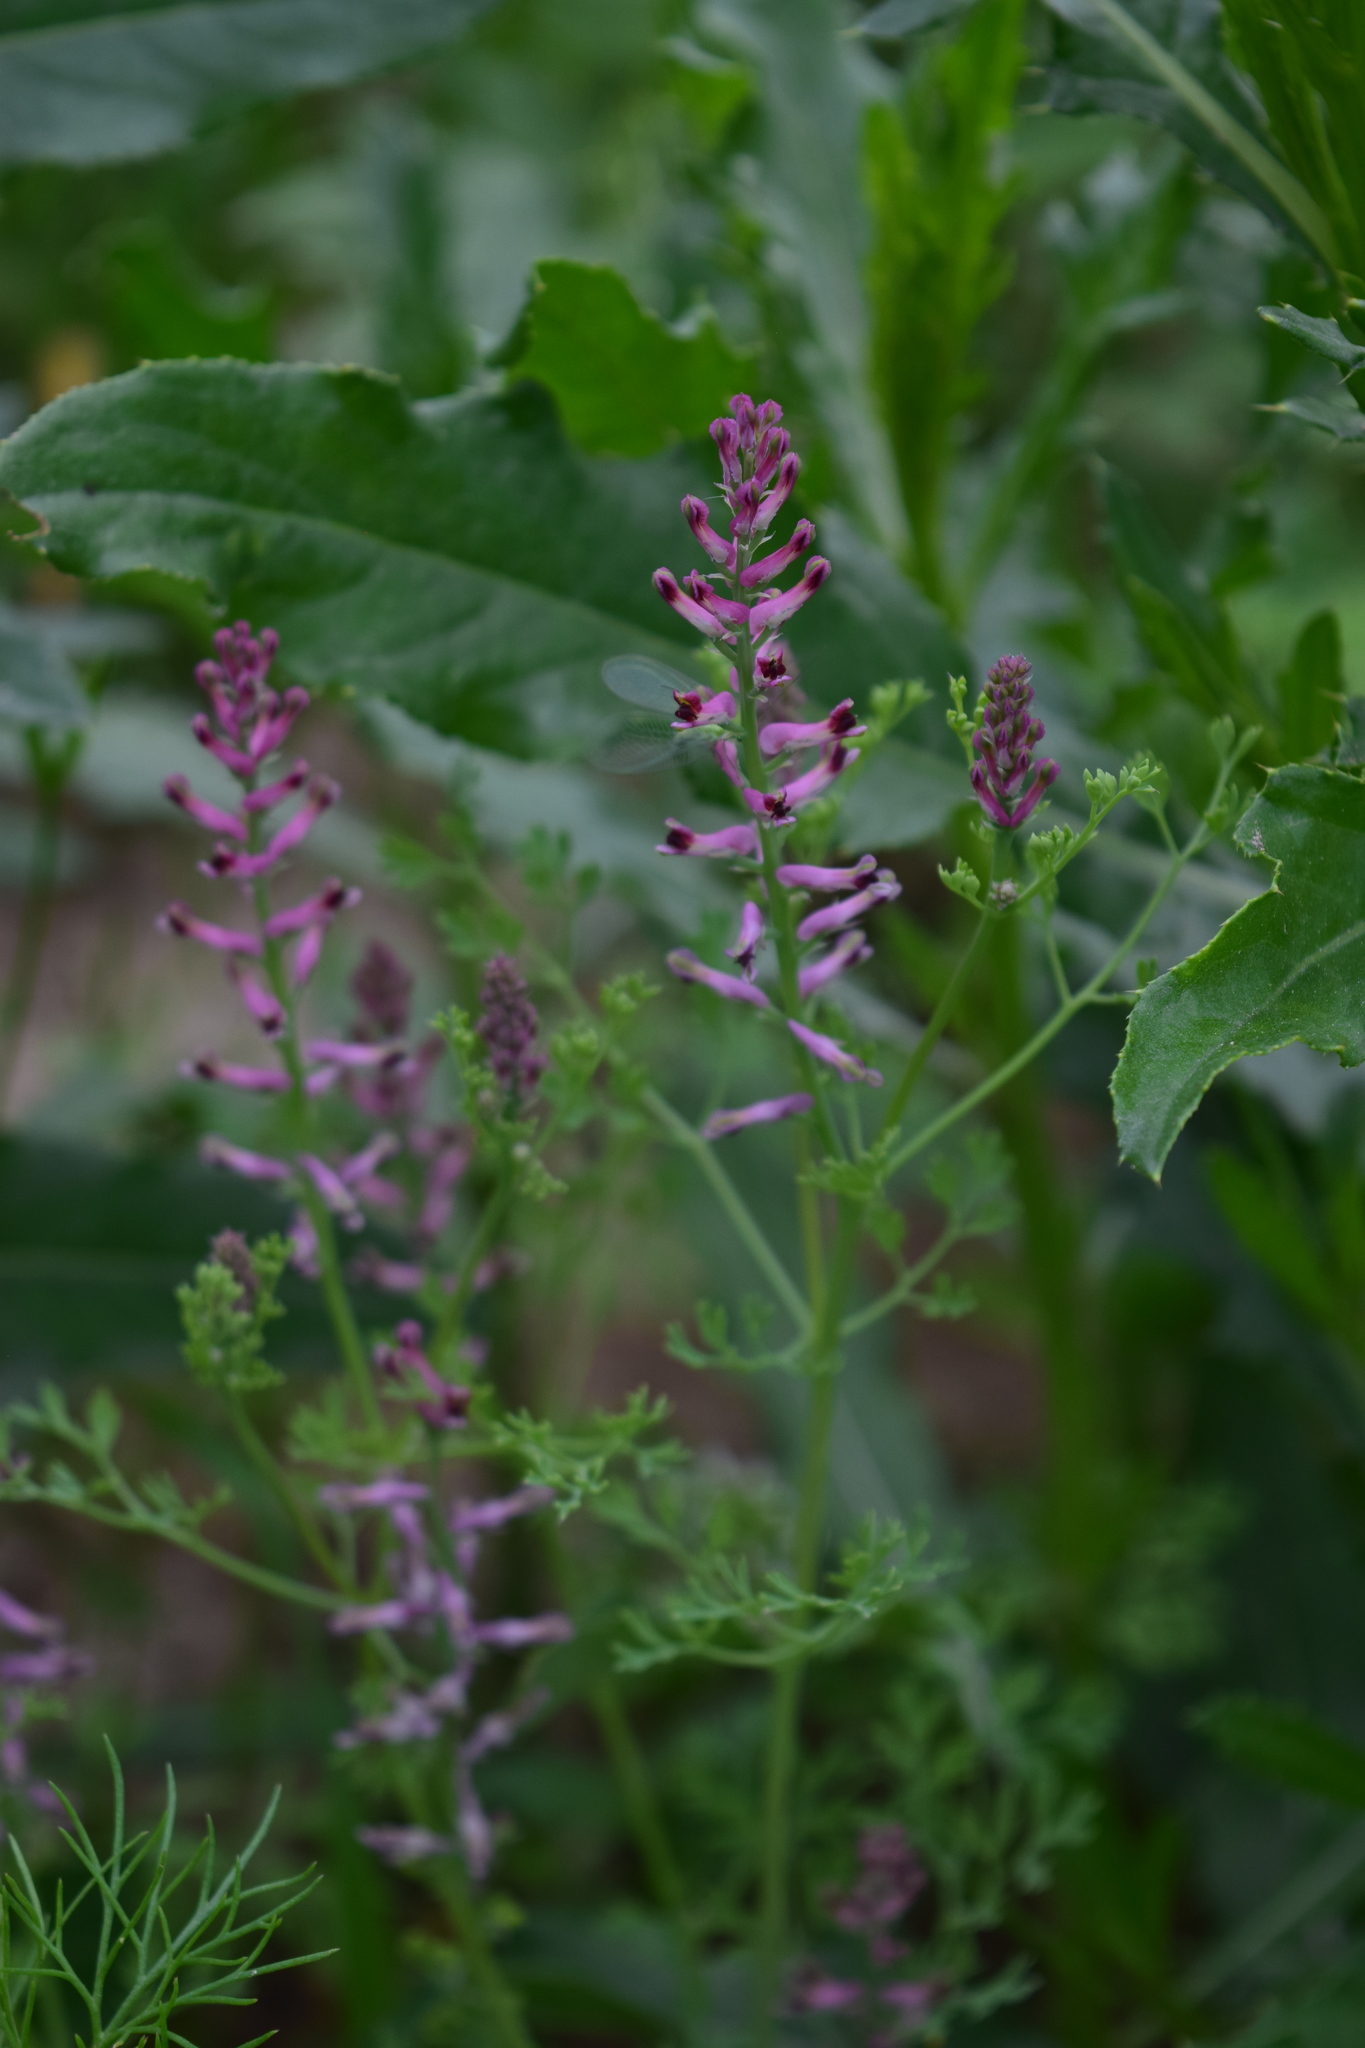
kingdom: Plantae
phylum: Tracheophyta
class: Magnoliopsida
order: Ranunculales
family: Papaveraceae
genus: Fumaria
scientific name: Fumaria officinalis
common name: Common fumitory
